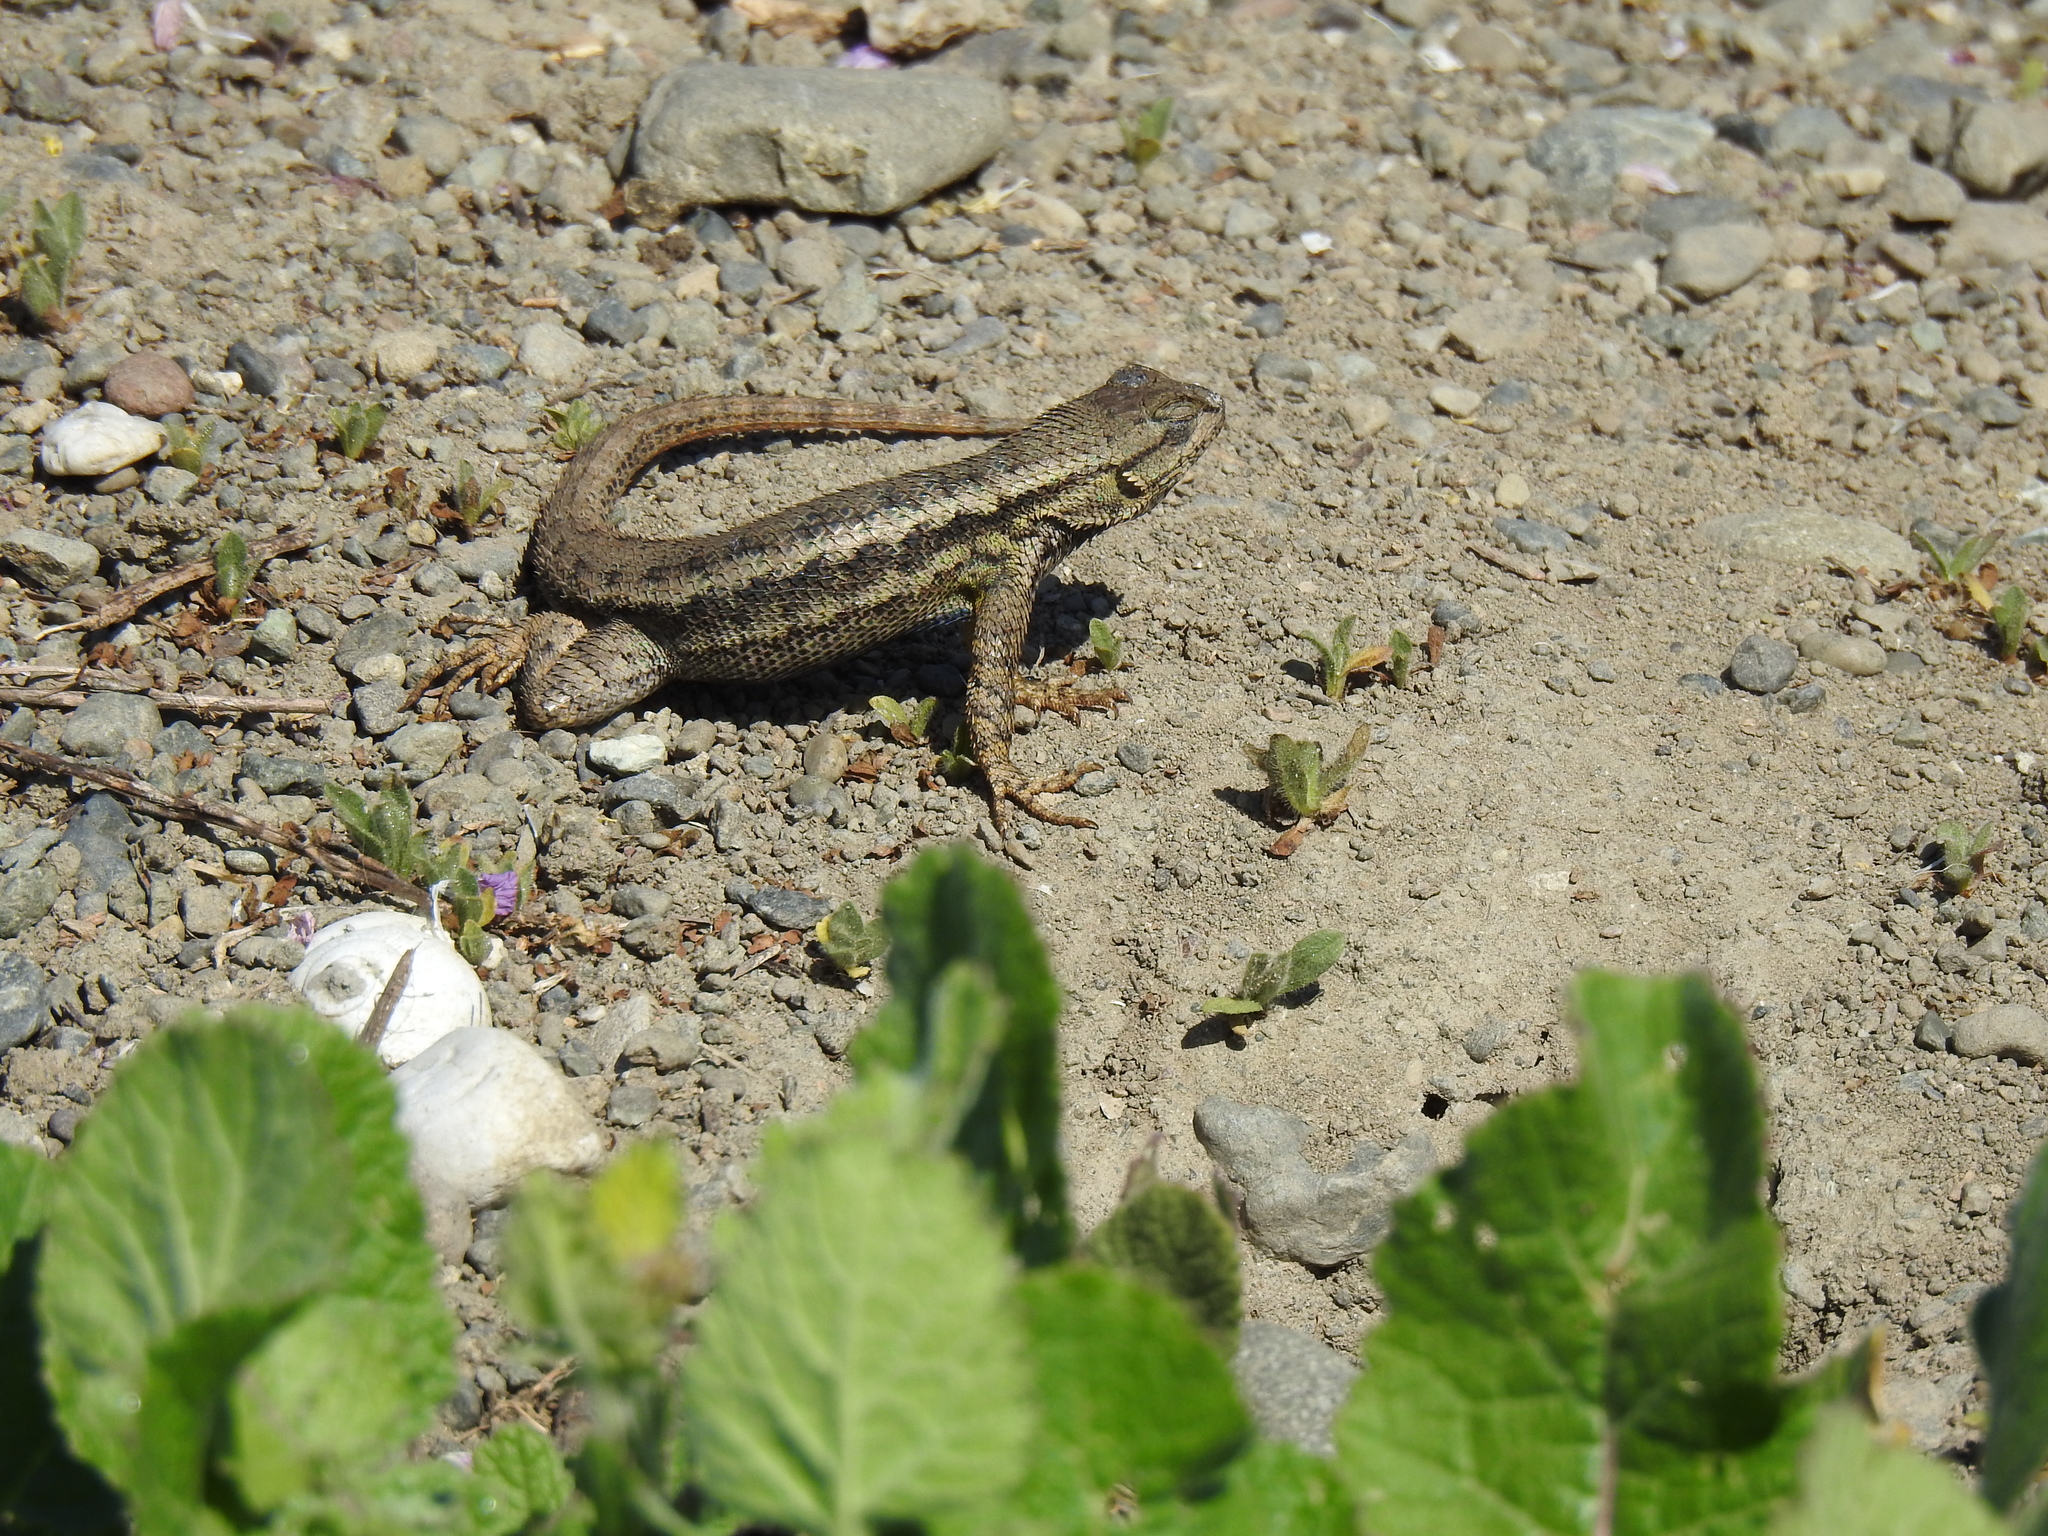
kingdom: Animalia
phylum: Chordata
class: Squamata
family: Phrynosomatidae
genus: Sceloporus
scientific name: Sceloporus occidentalis
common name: Western fence lizard
